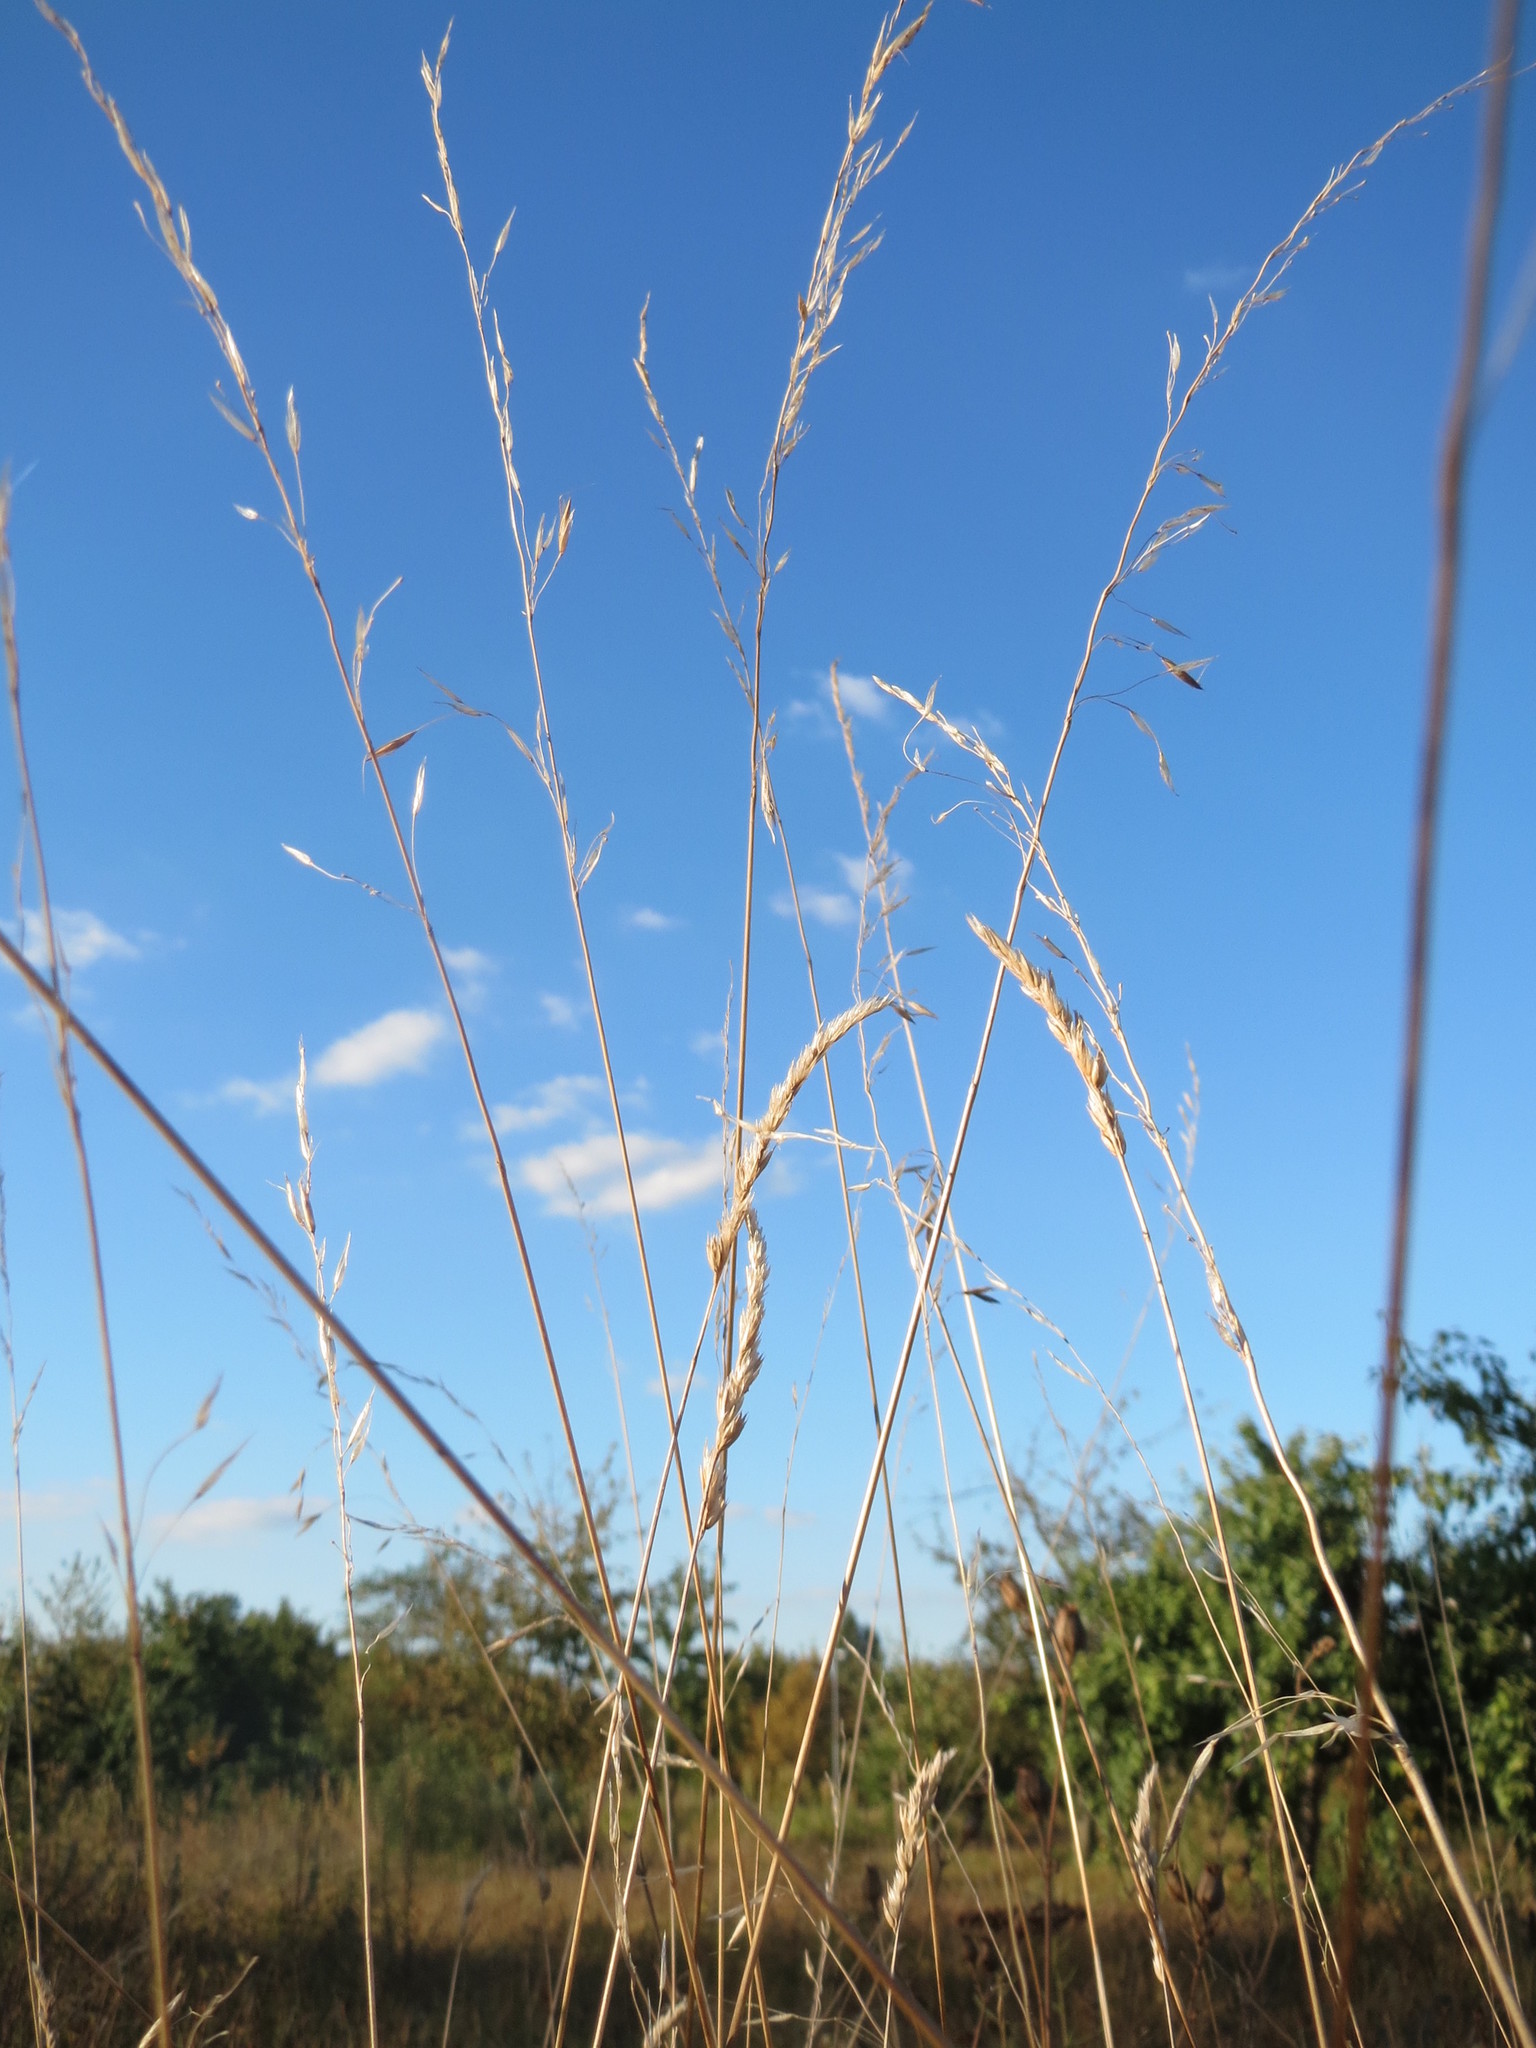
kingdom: Plantae
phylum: Tracheophyta
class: Liliopsida
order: Poales
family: Poaceae
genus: Arrhenatherum
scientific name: Arrhenatherum elatius
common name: Tall oatgrass
